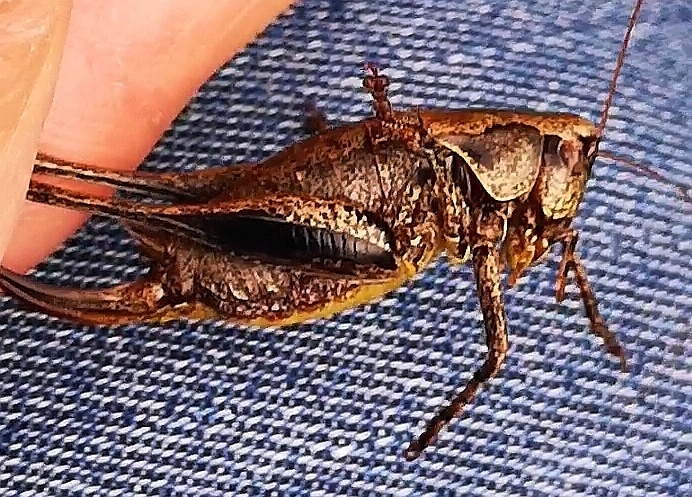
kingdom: Animalia
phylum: Arthropoda
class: Insecta
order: Orthoptera
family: Tettigoniidae
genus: Pholidoptera
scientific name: Pholidoptera griseoaptera
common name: Dark bush-cricket
